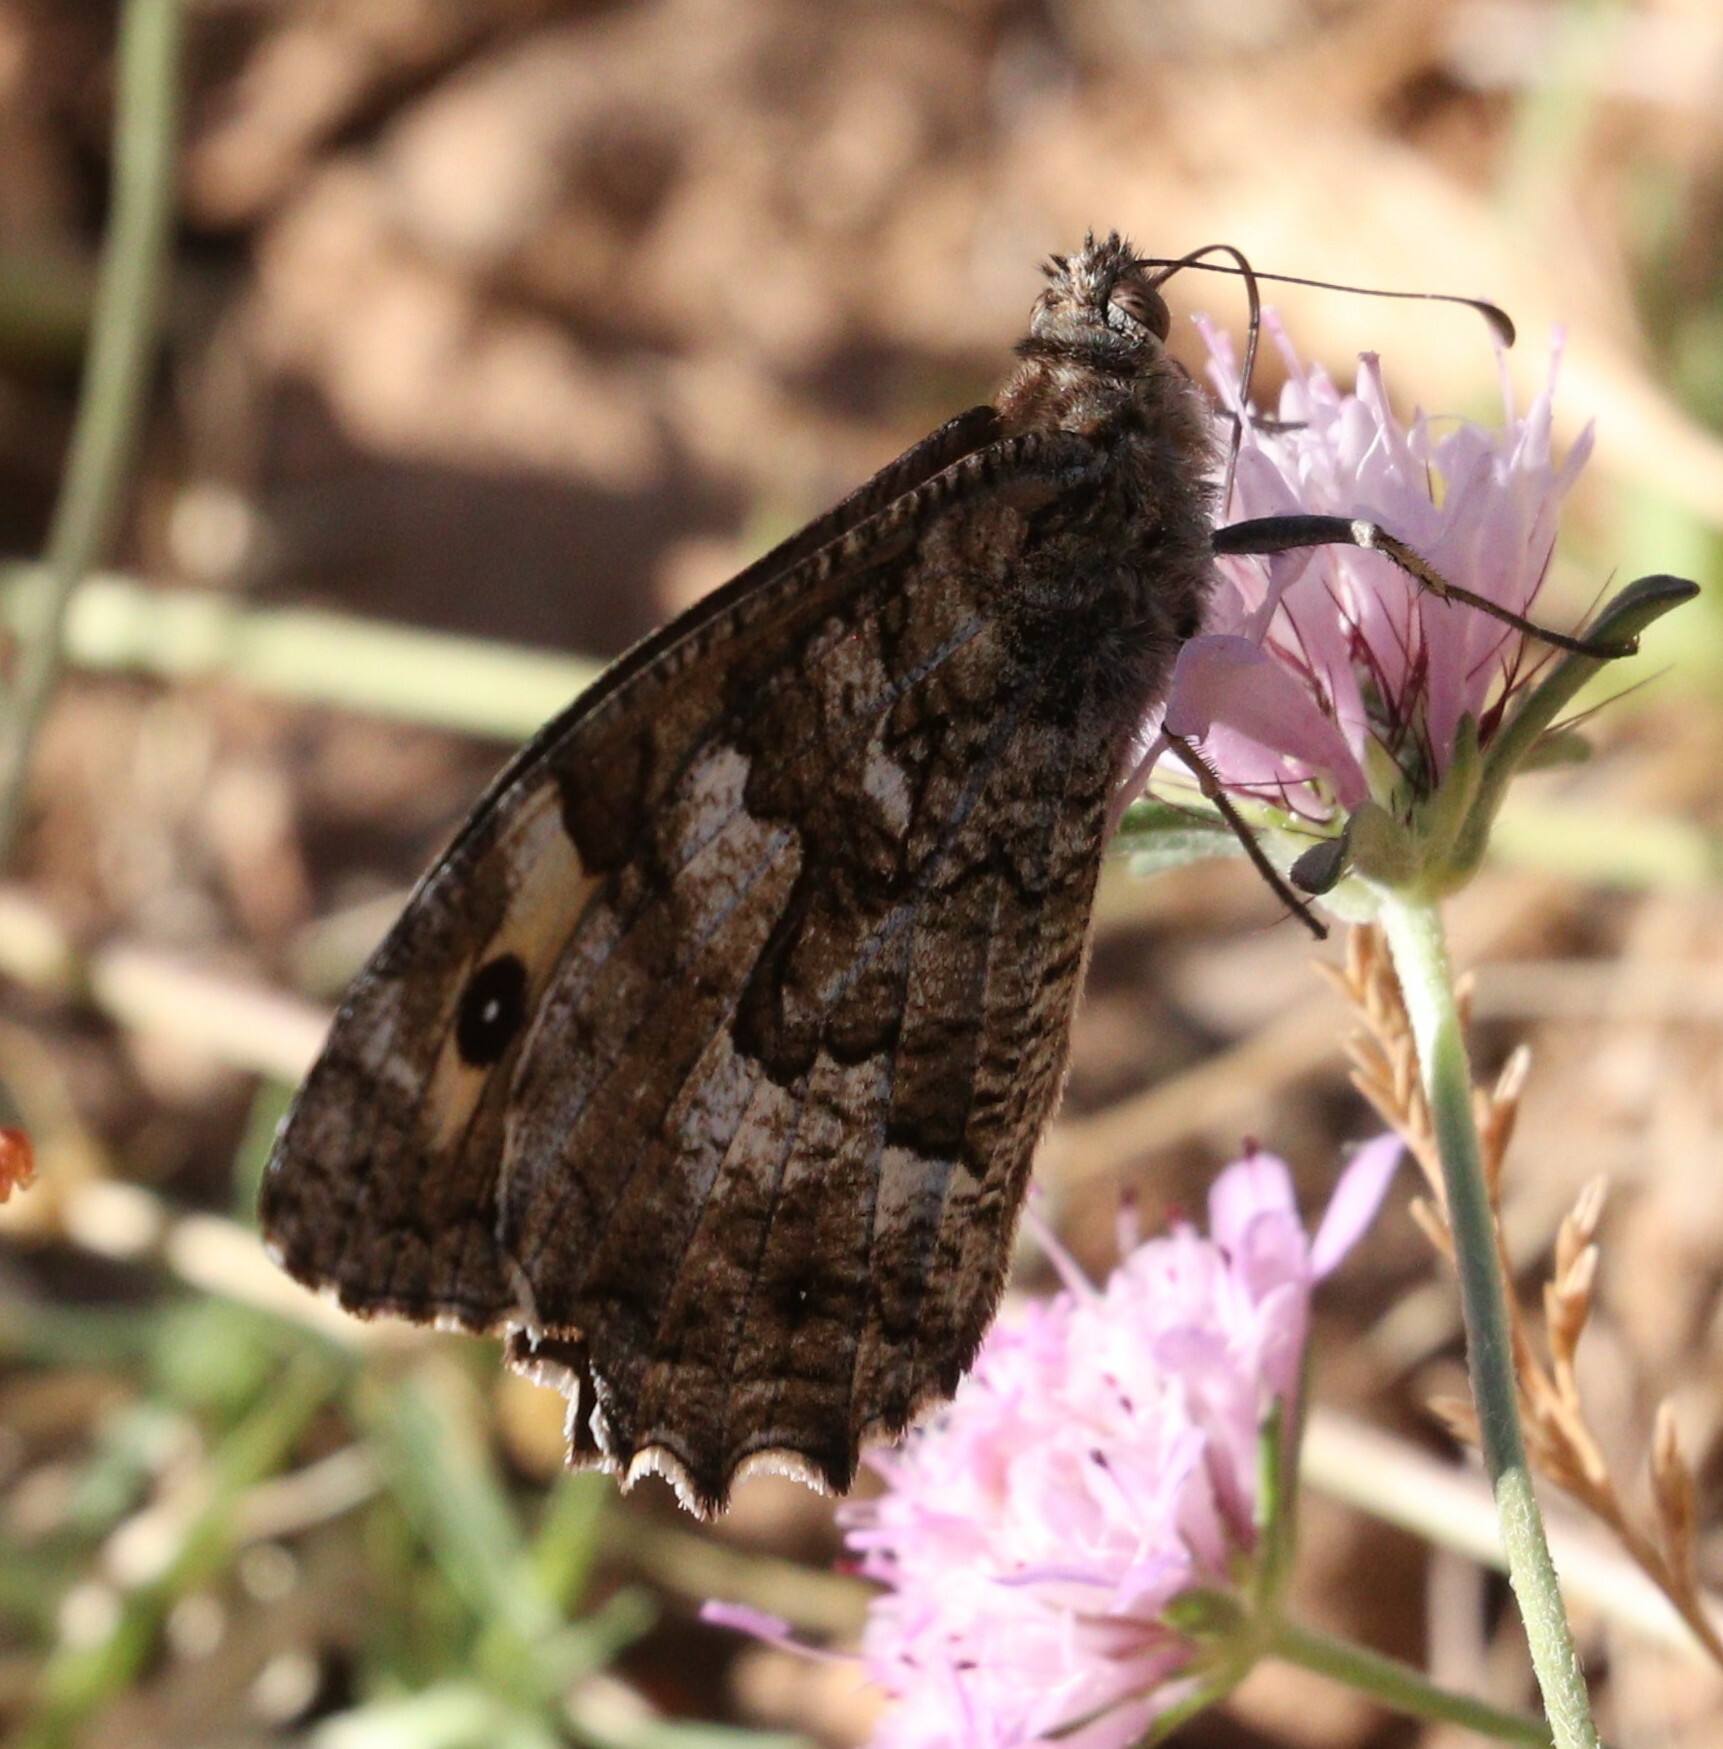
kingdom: Animalia
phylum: Arthropoda
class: Insecta
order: Lepidoptera
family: Nymphalidae
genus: Hipparchia
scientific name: Hipparchia semele
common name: Grayling
